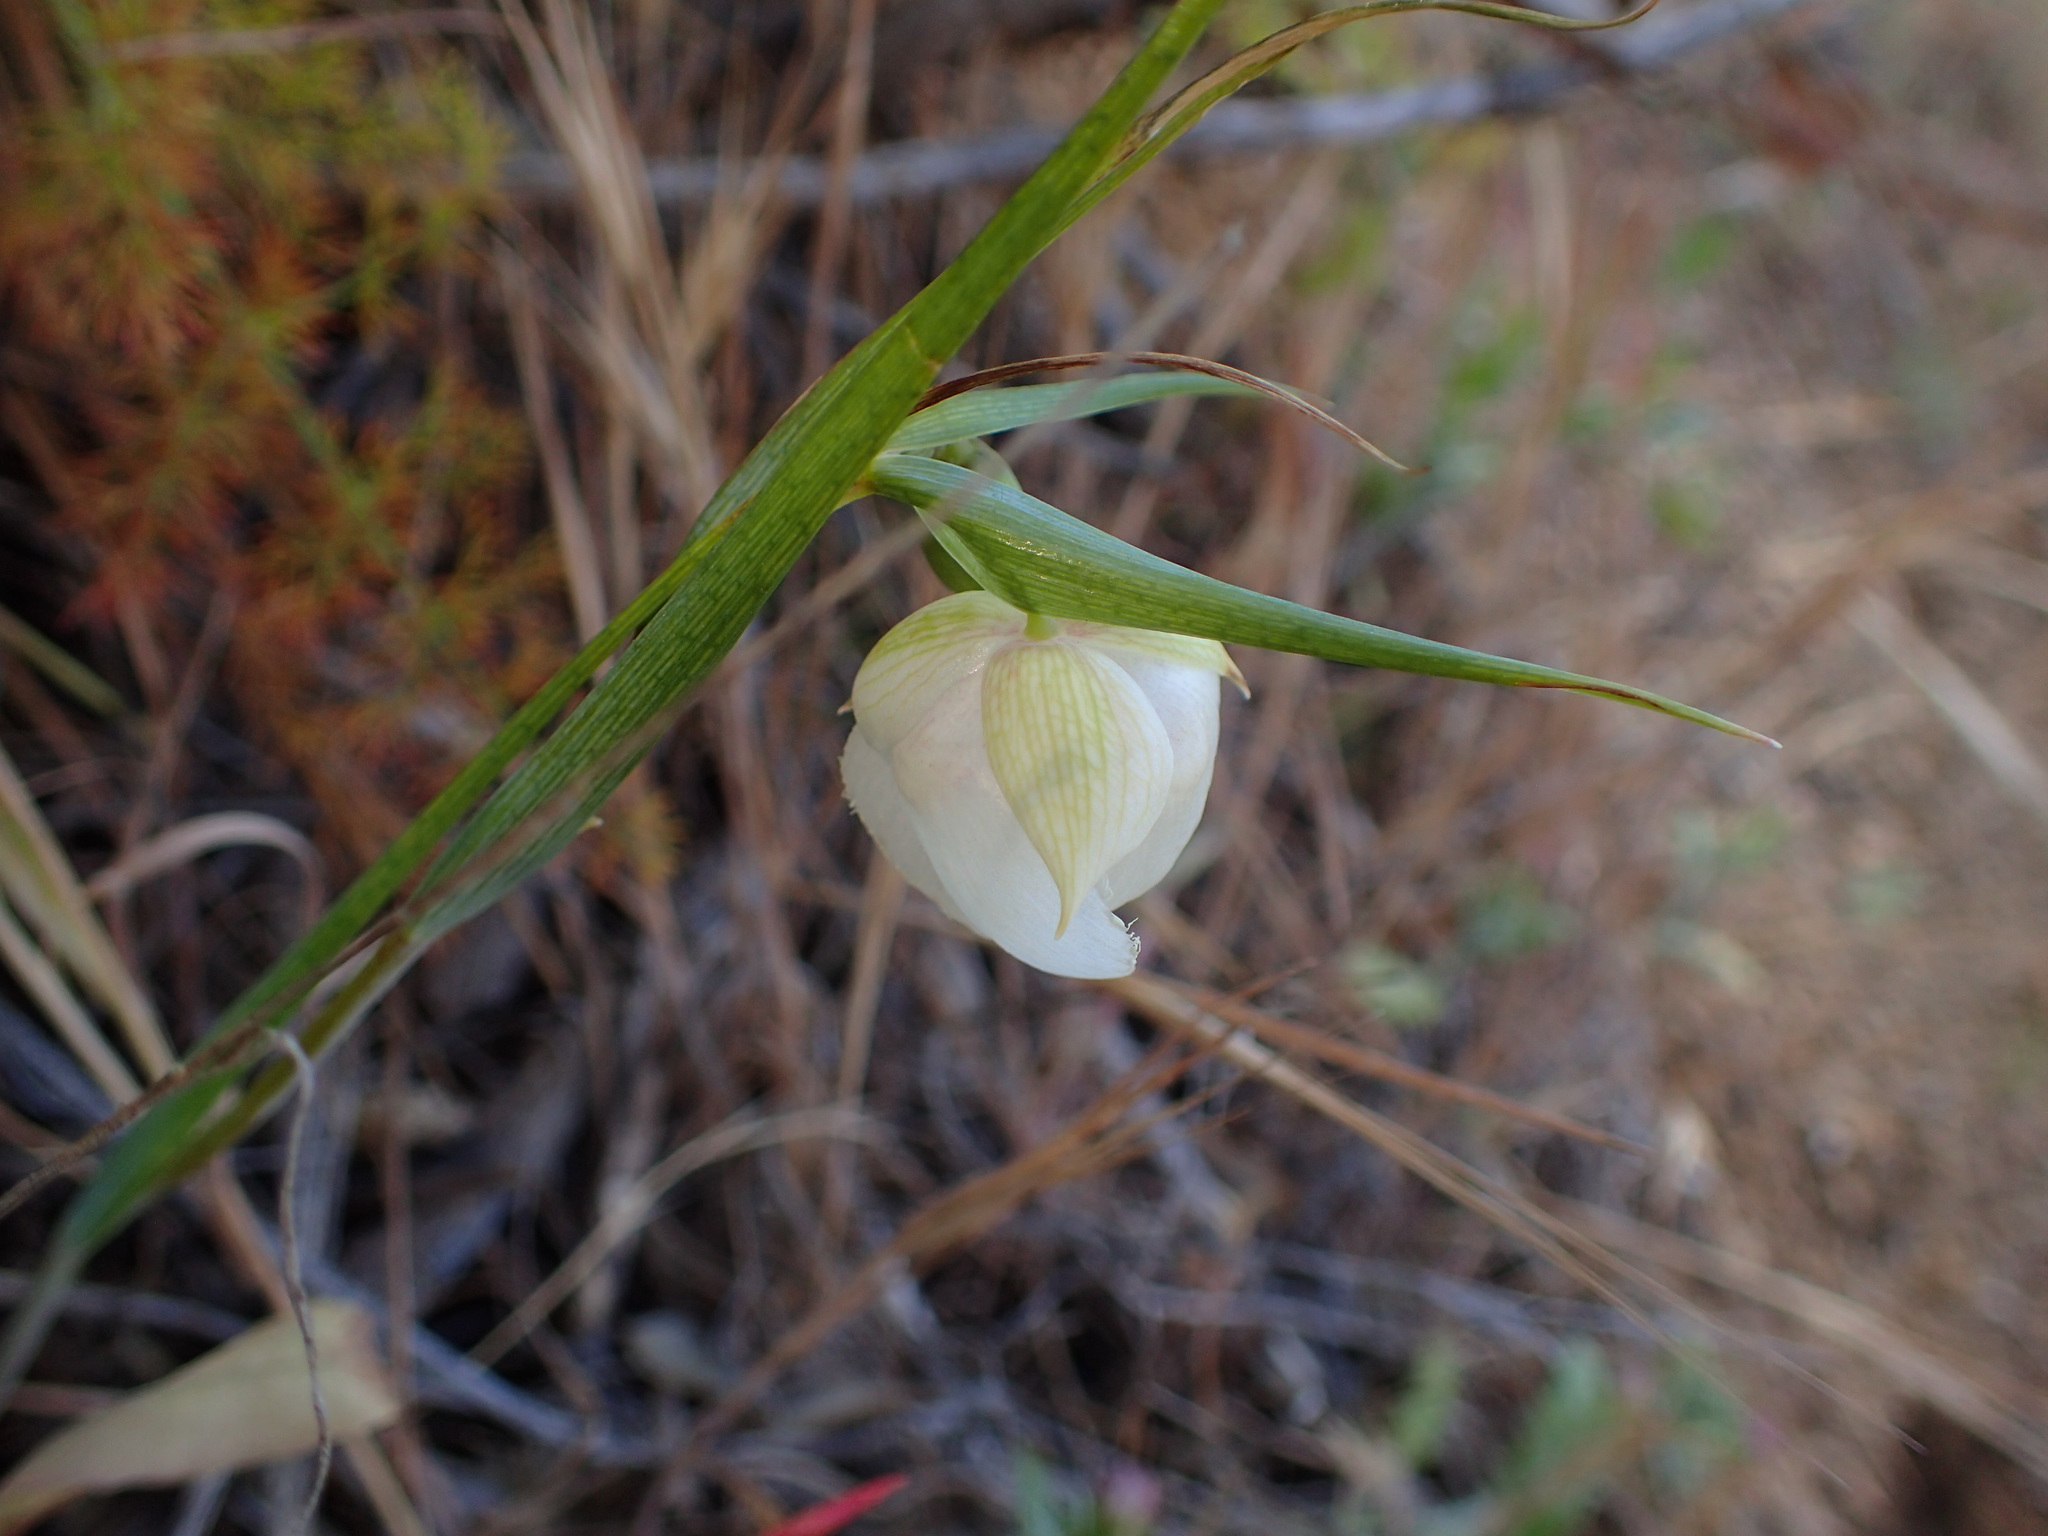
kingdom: Plantae
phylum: Tracheophyta
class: Liliopsida
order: Liliales
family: Liliaceae
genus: Calochortus
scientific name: Calochortus albus
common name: Fairy-lantern
